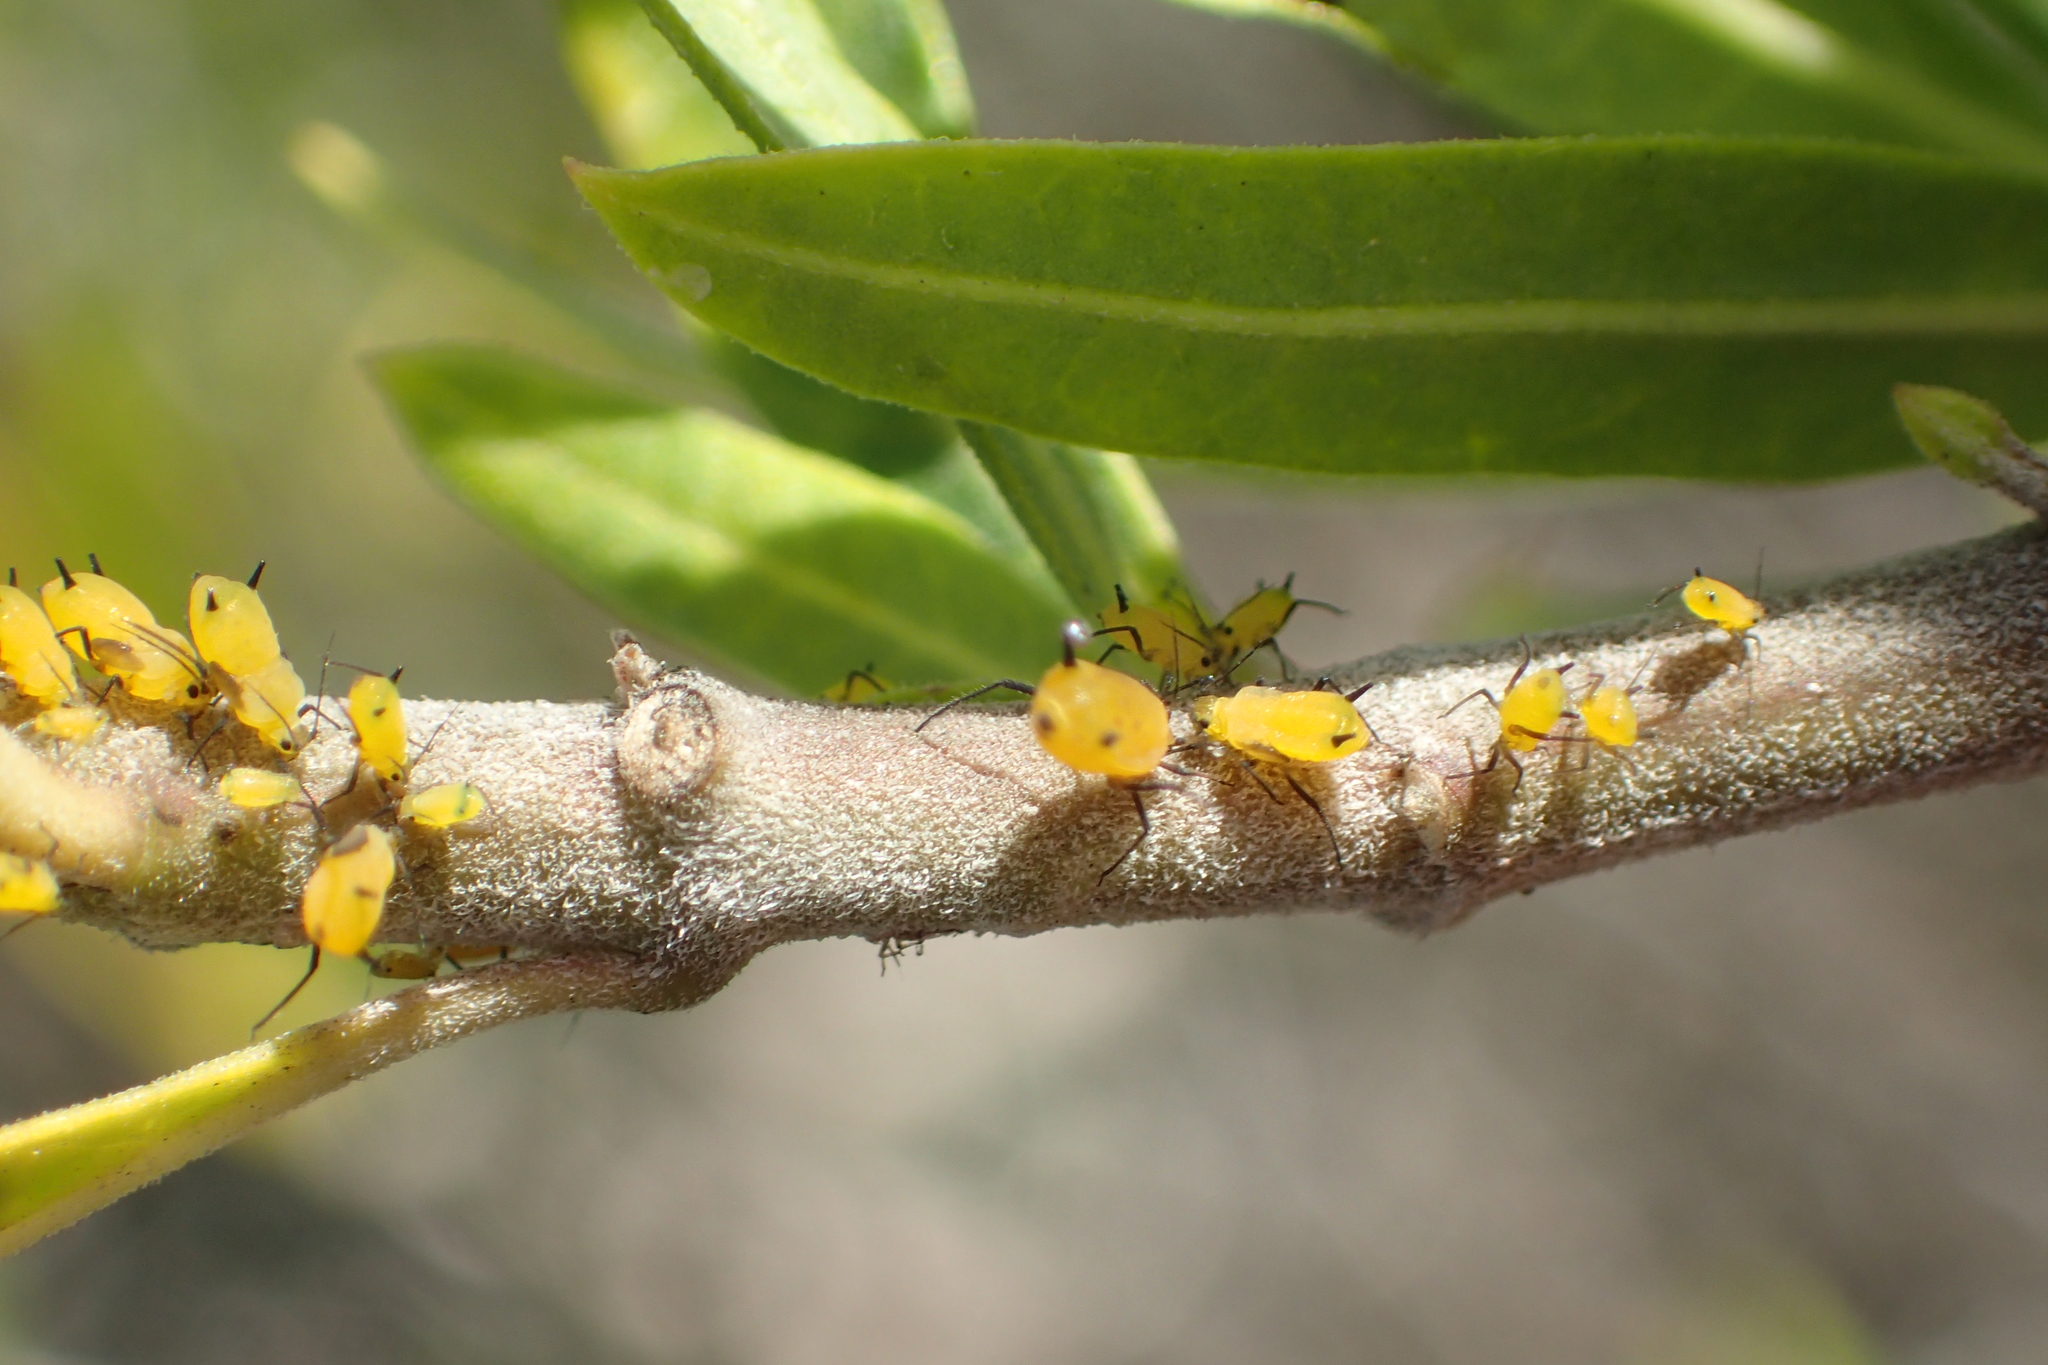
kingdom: Animalia
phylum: Arthropoda
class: Insecta
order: Hemiptera
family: Aphididae
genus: Aphis
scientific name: Aphis nerii
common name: Oleander aphid
